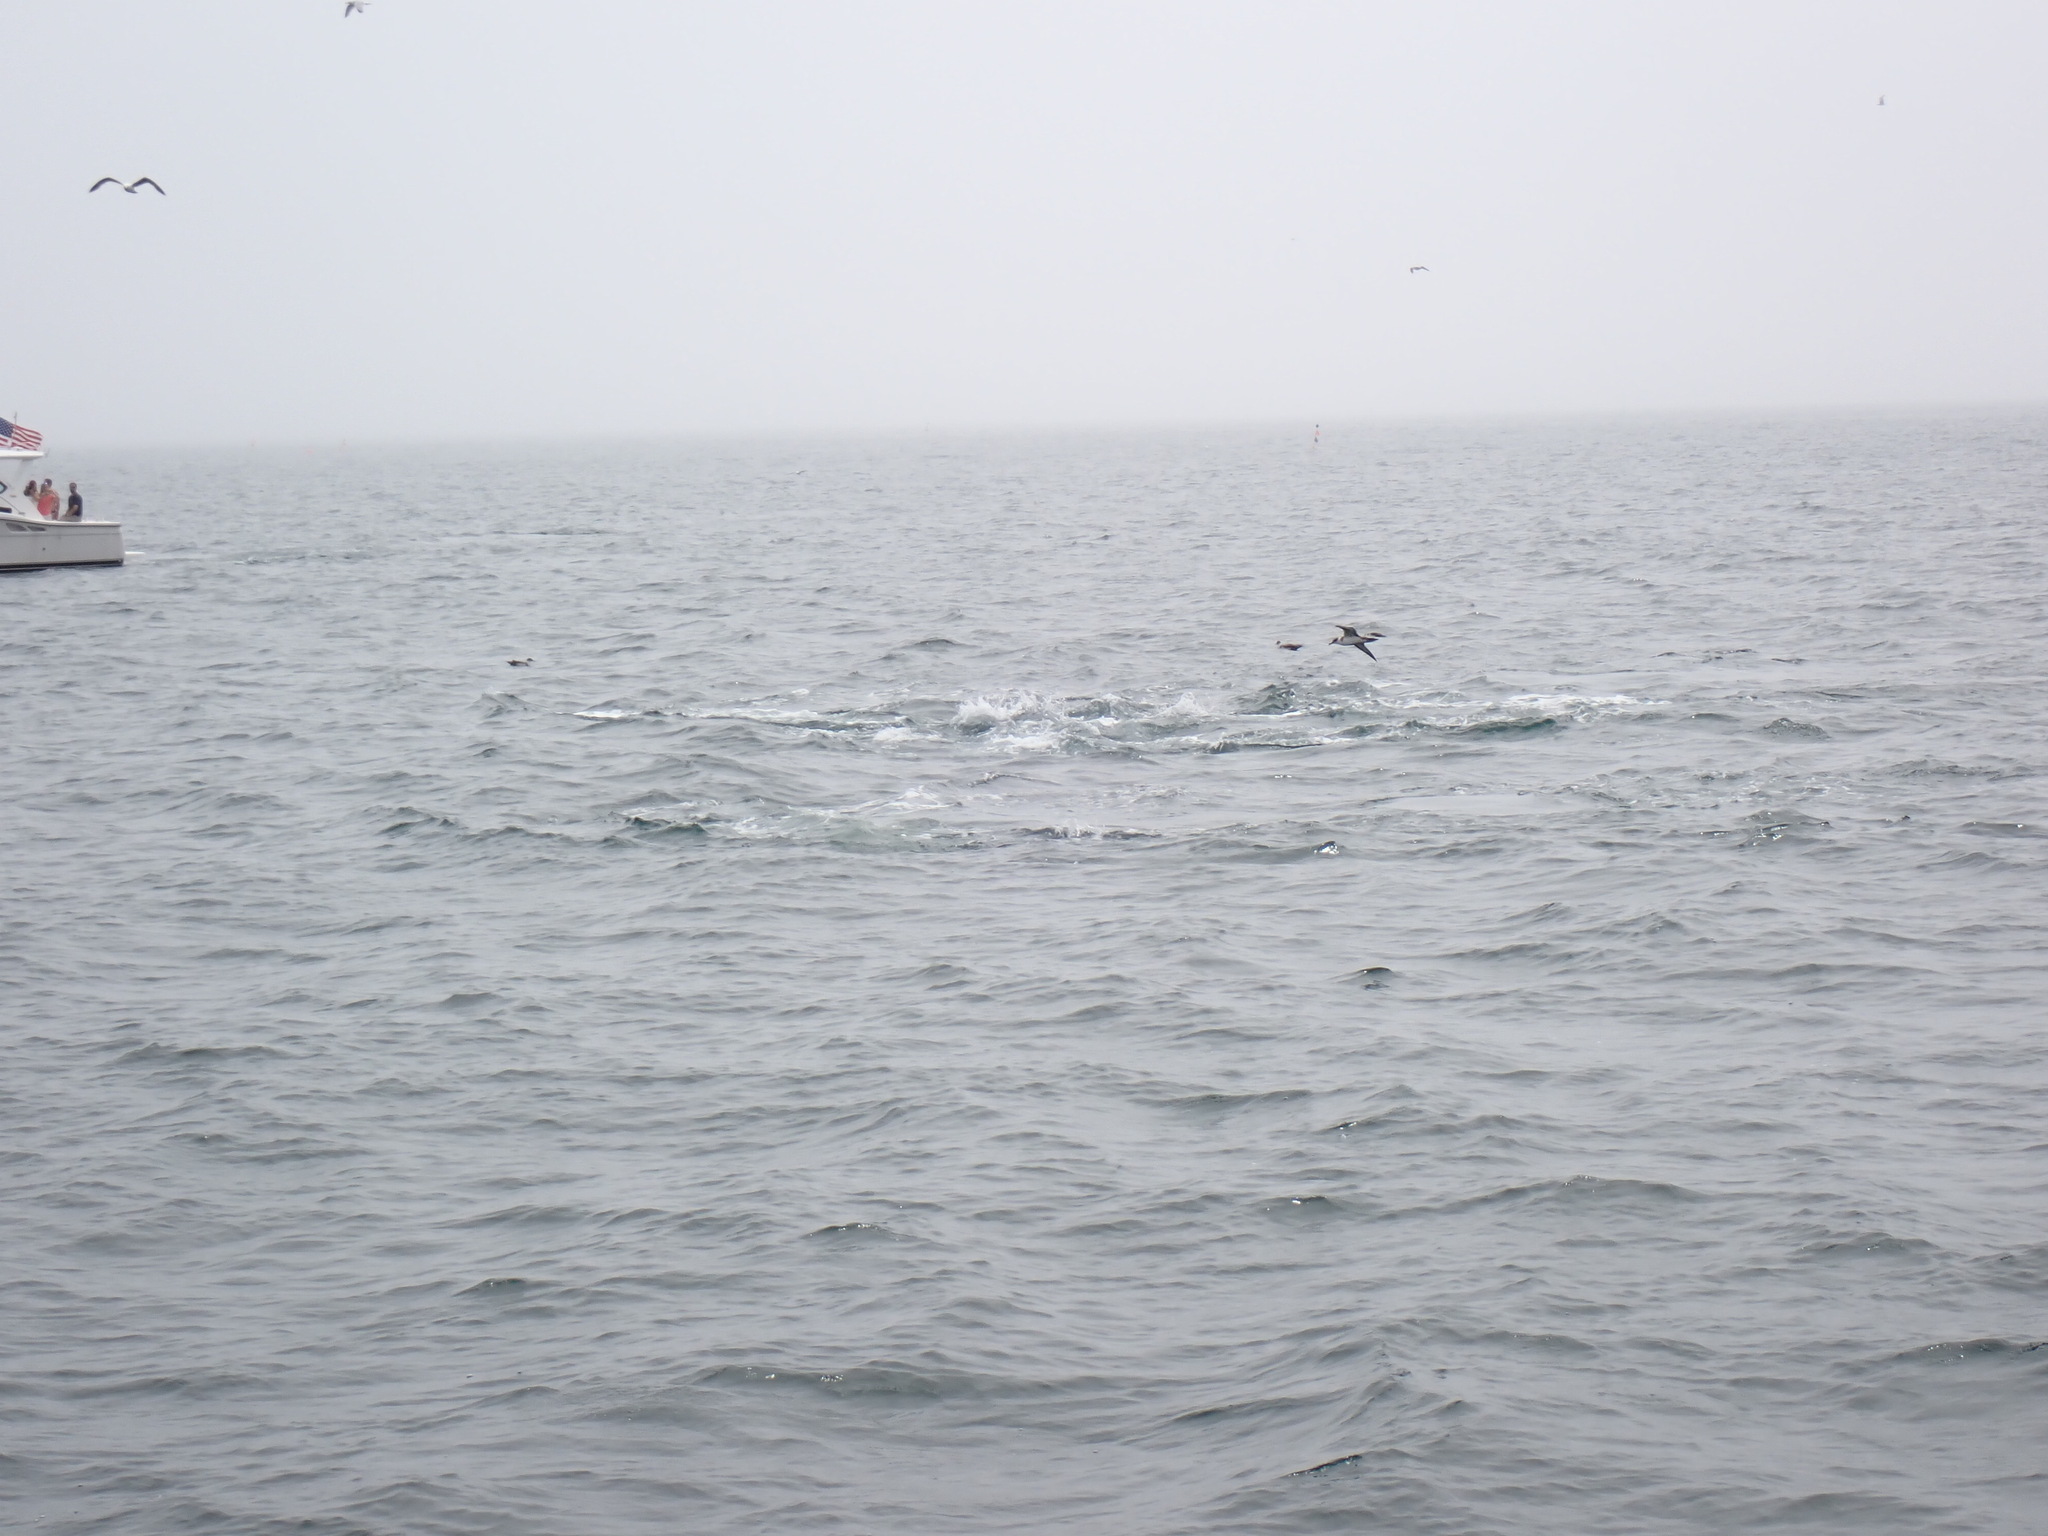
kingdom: Animalia
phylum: Chordata
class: Aves
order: Procellariiformes
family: Procellariidae
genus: Puffinus
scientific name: Puffinus gravis
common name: Great shearwater
